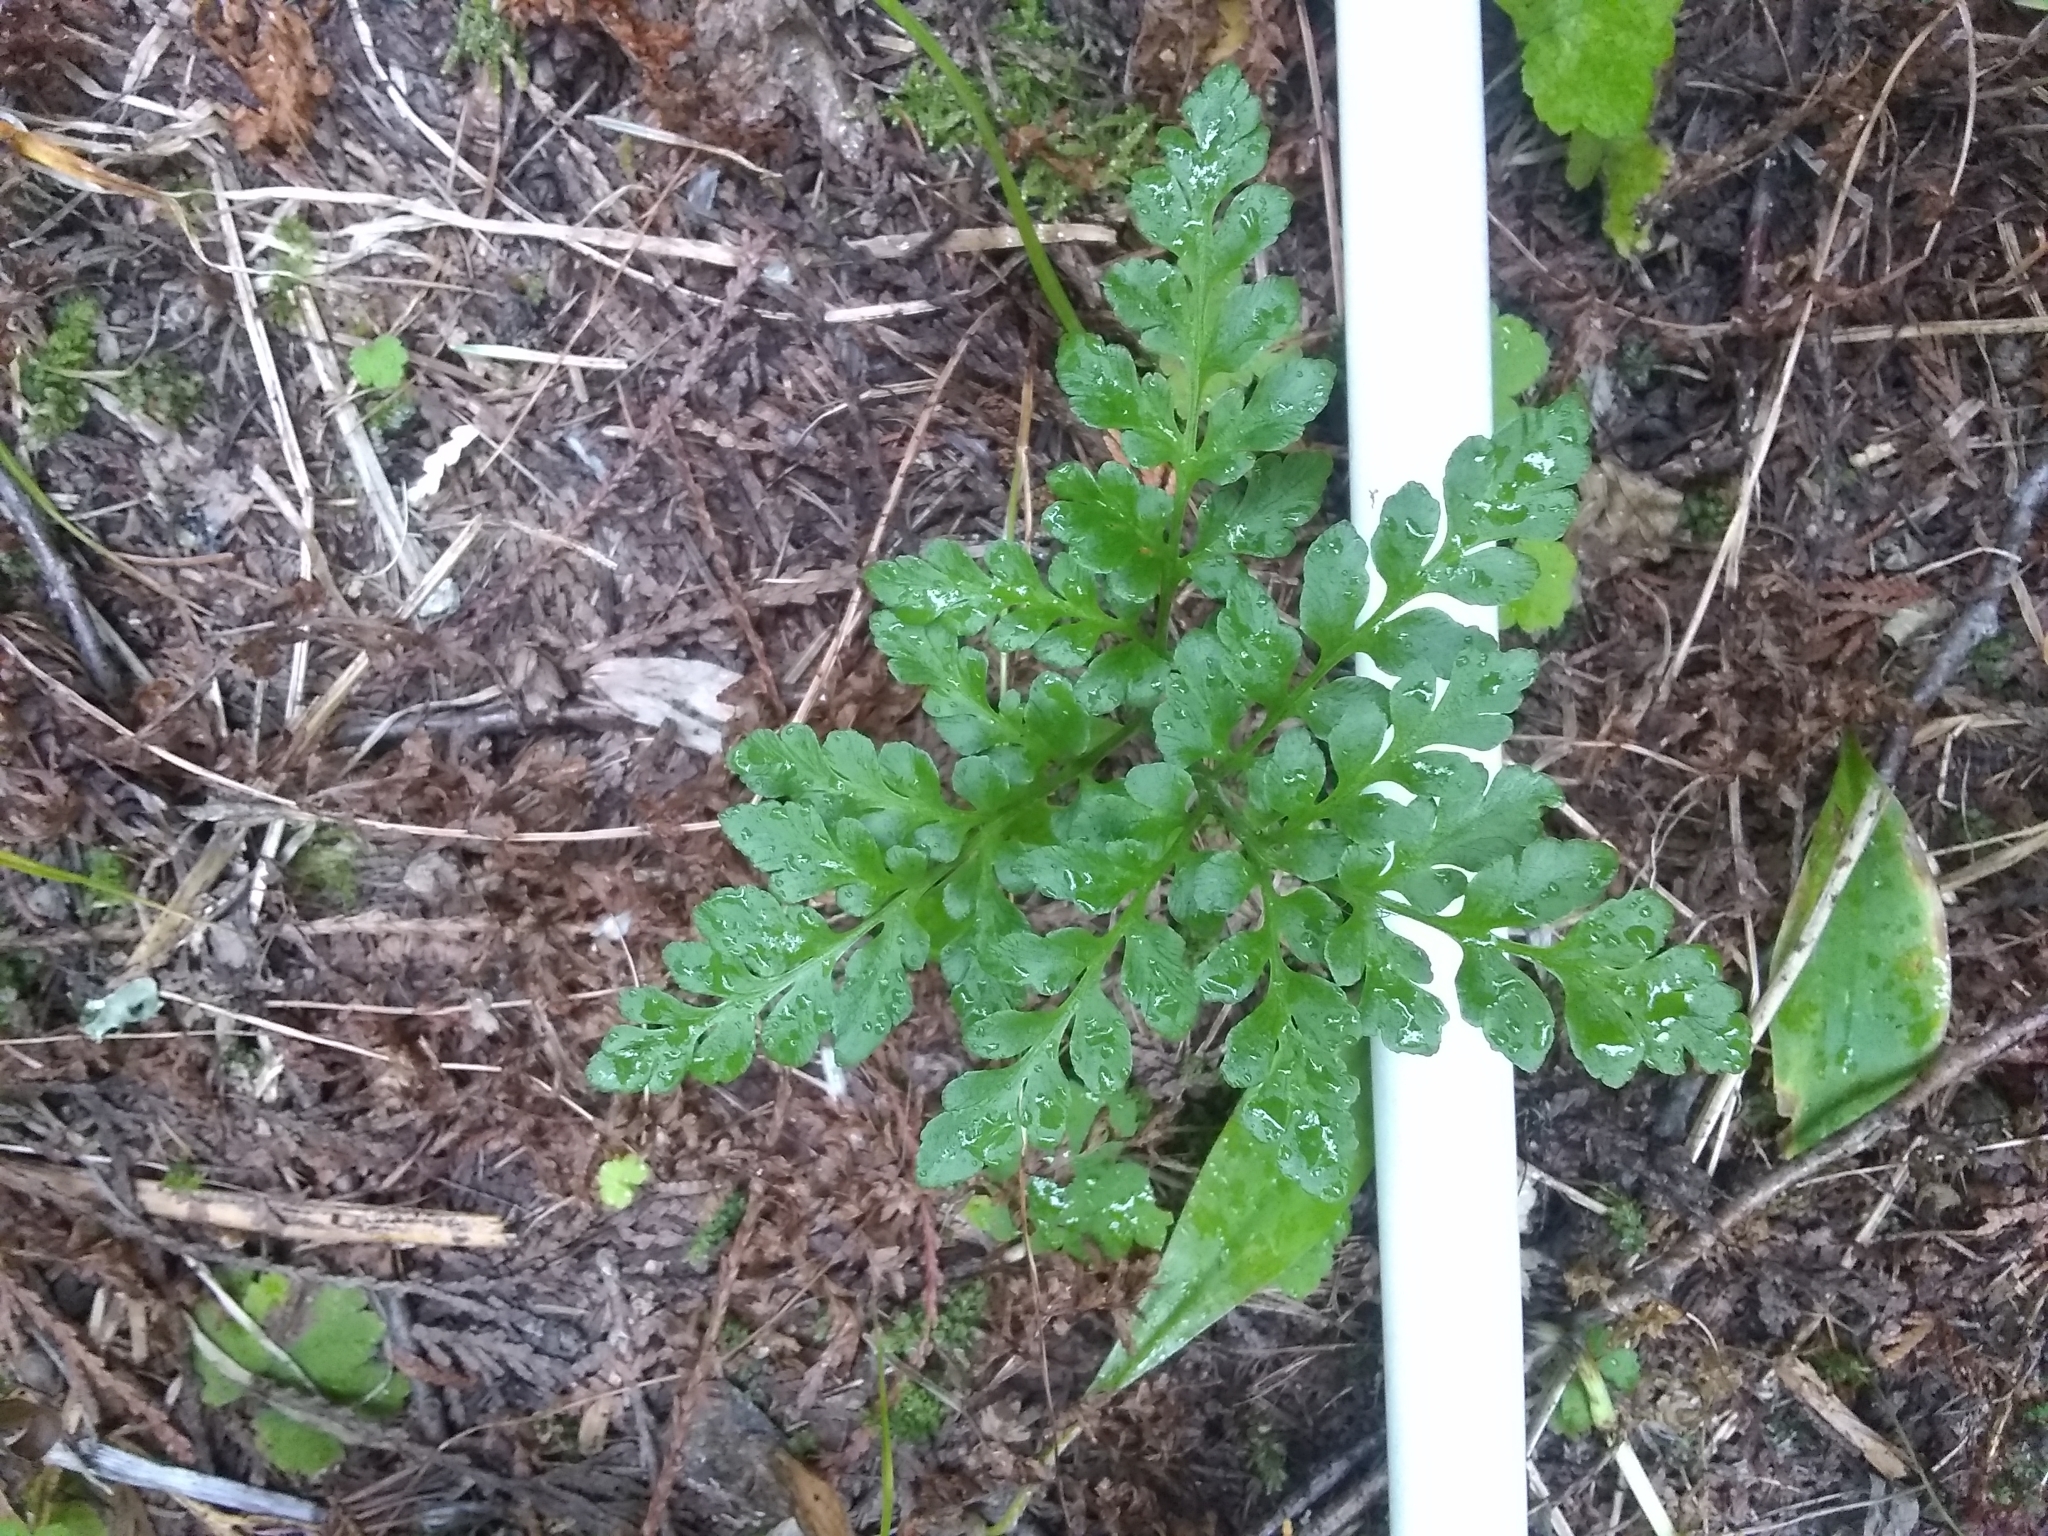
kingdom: Plantae
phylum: Tracheophyta
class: Polypodiopsida
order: Ophioglossales
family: Ophioglossaceae
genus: Sceptridium
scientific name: Sceptridium multifidum
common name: Leathery grape fern
